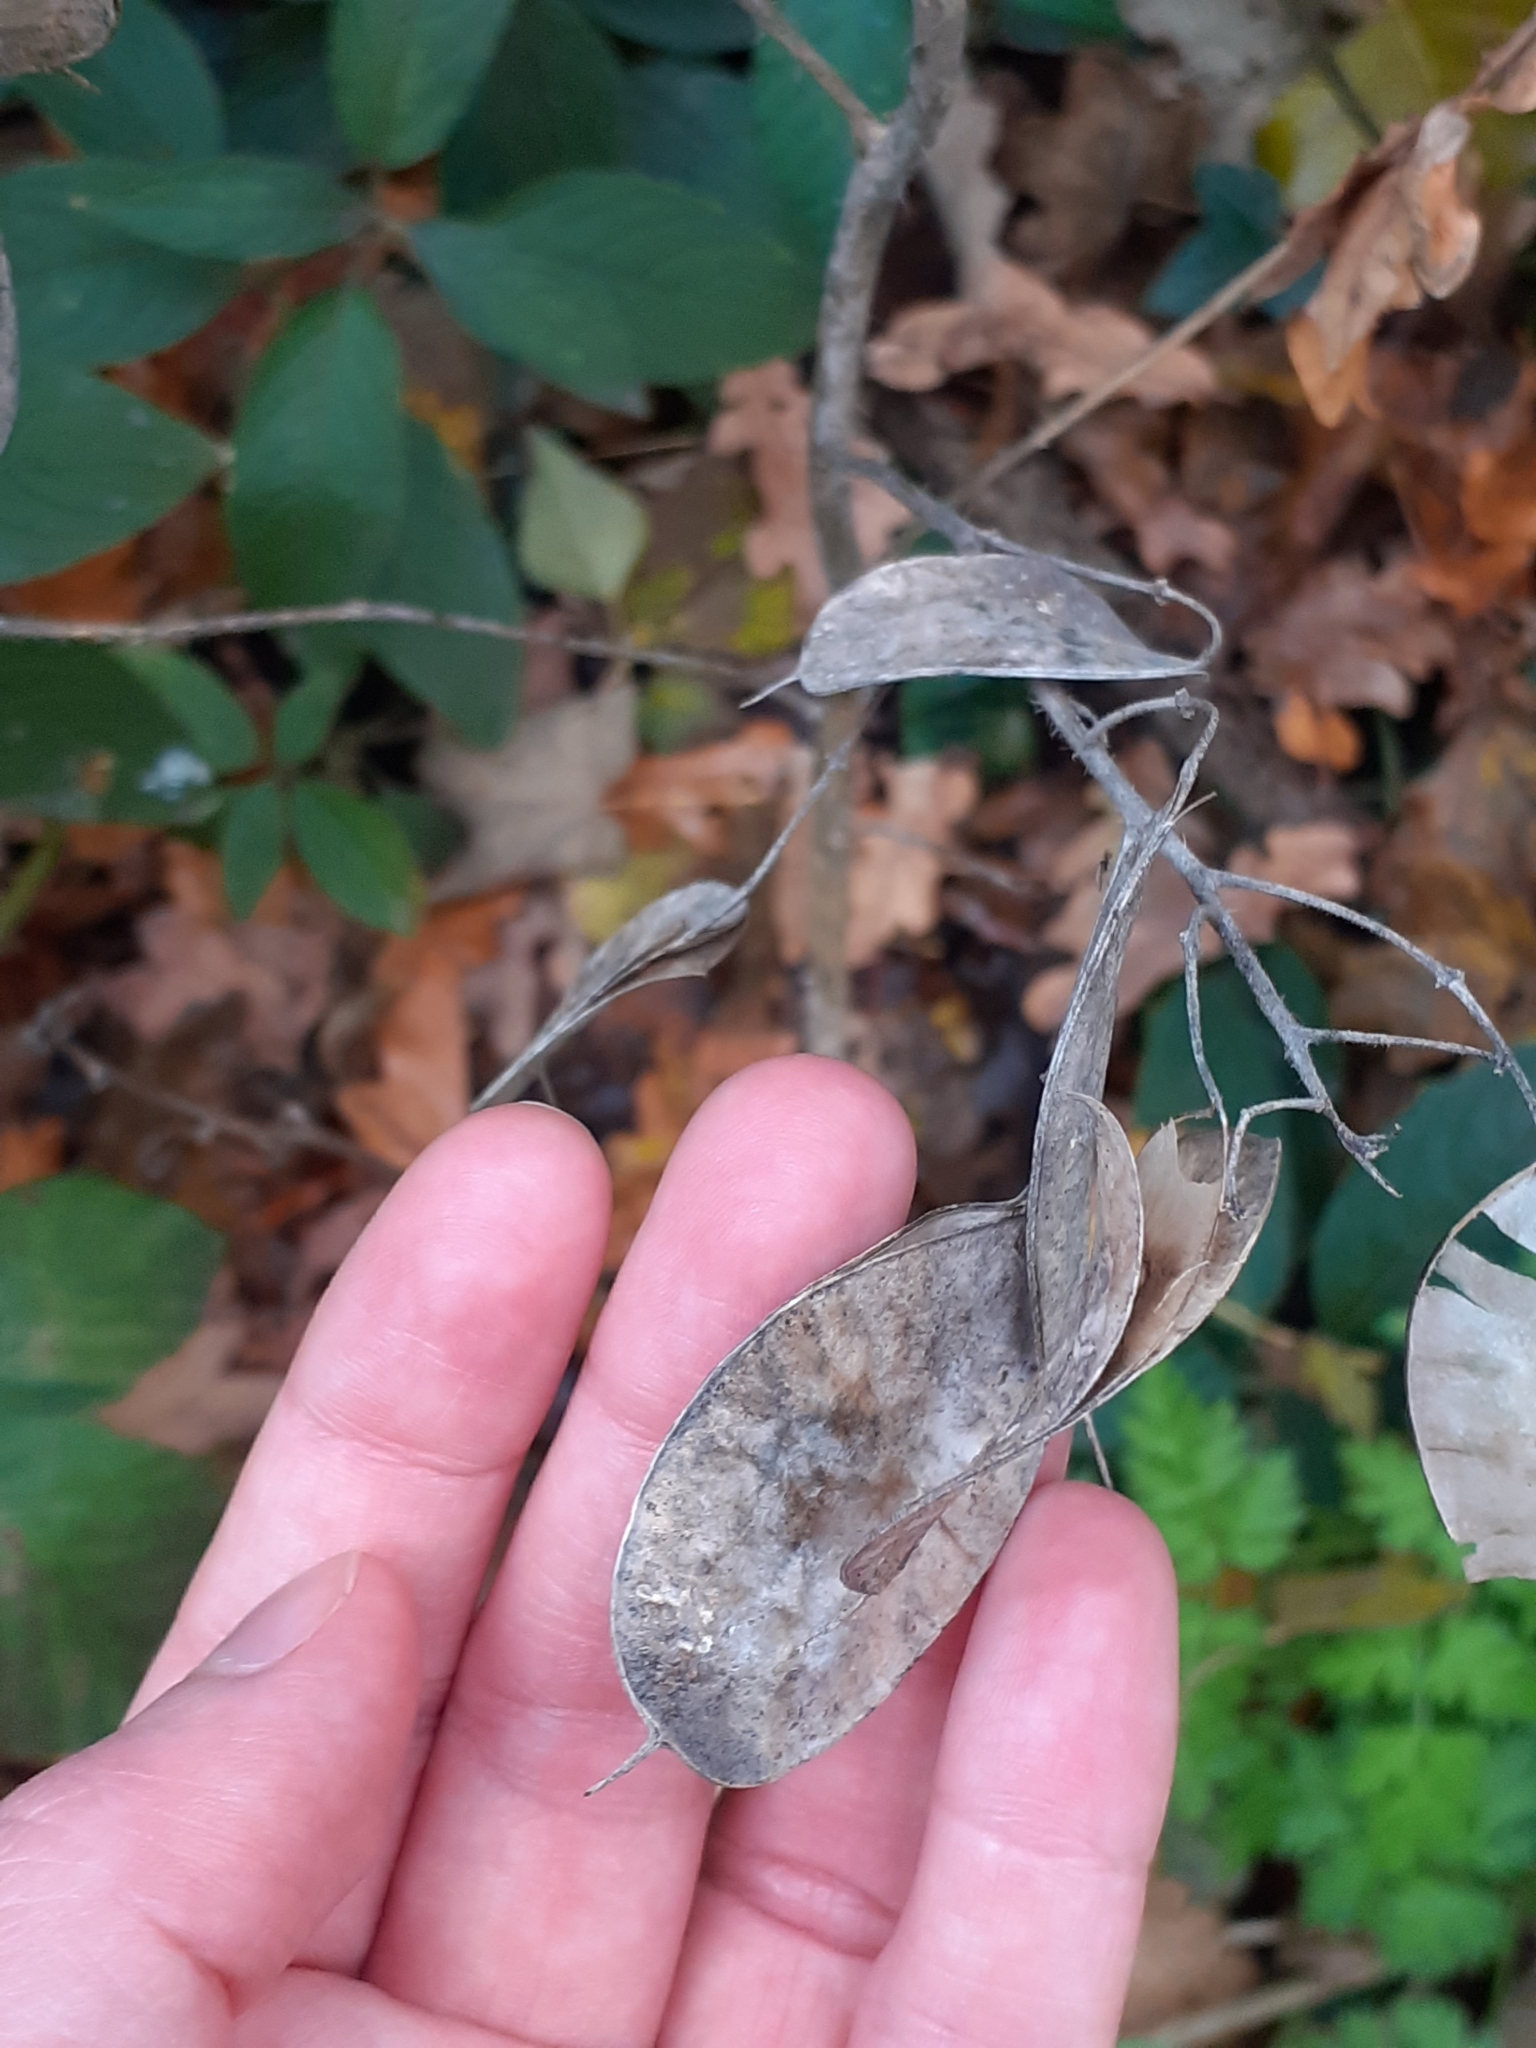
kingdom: Plantae
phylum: Tracheophyta
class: Magnoliopsida
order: Brassicales
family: Brassicaceae
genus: Lunaria
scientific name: Lunaria annua
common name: Honesty
